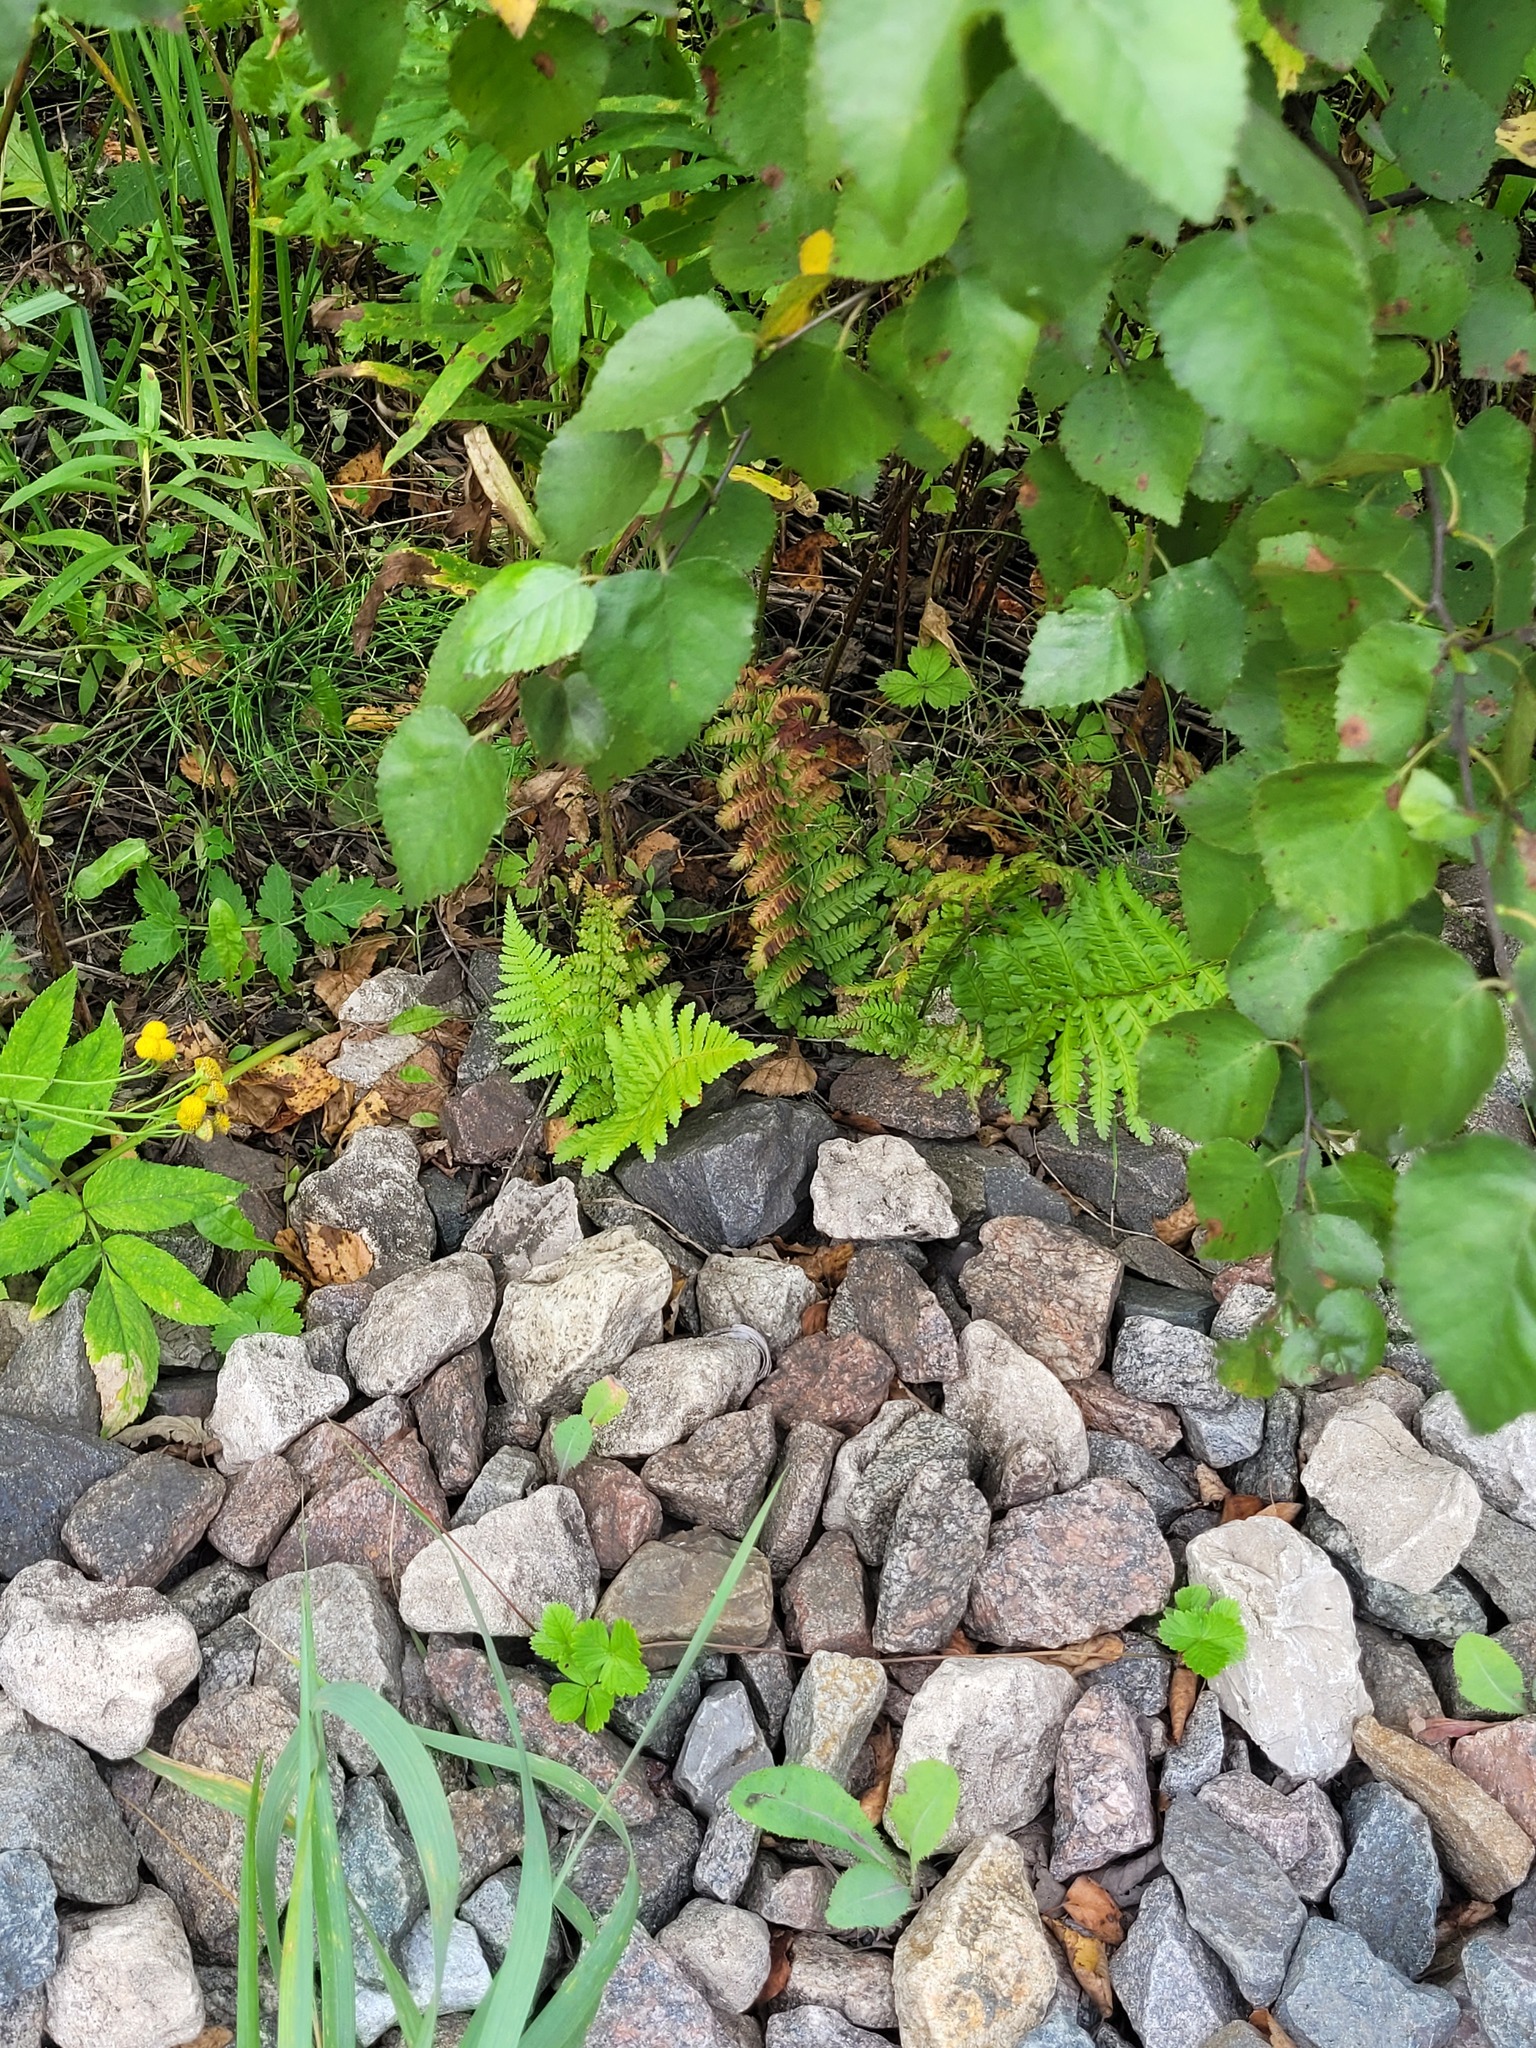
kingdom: Plantae
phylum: Tracheophyta
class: Polypodiopsida
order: Polypodiales
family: Dryopteridaceae
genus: Dryopteris
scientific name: Dryopteris filix-mas
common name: Male fern
